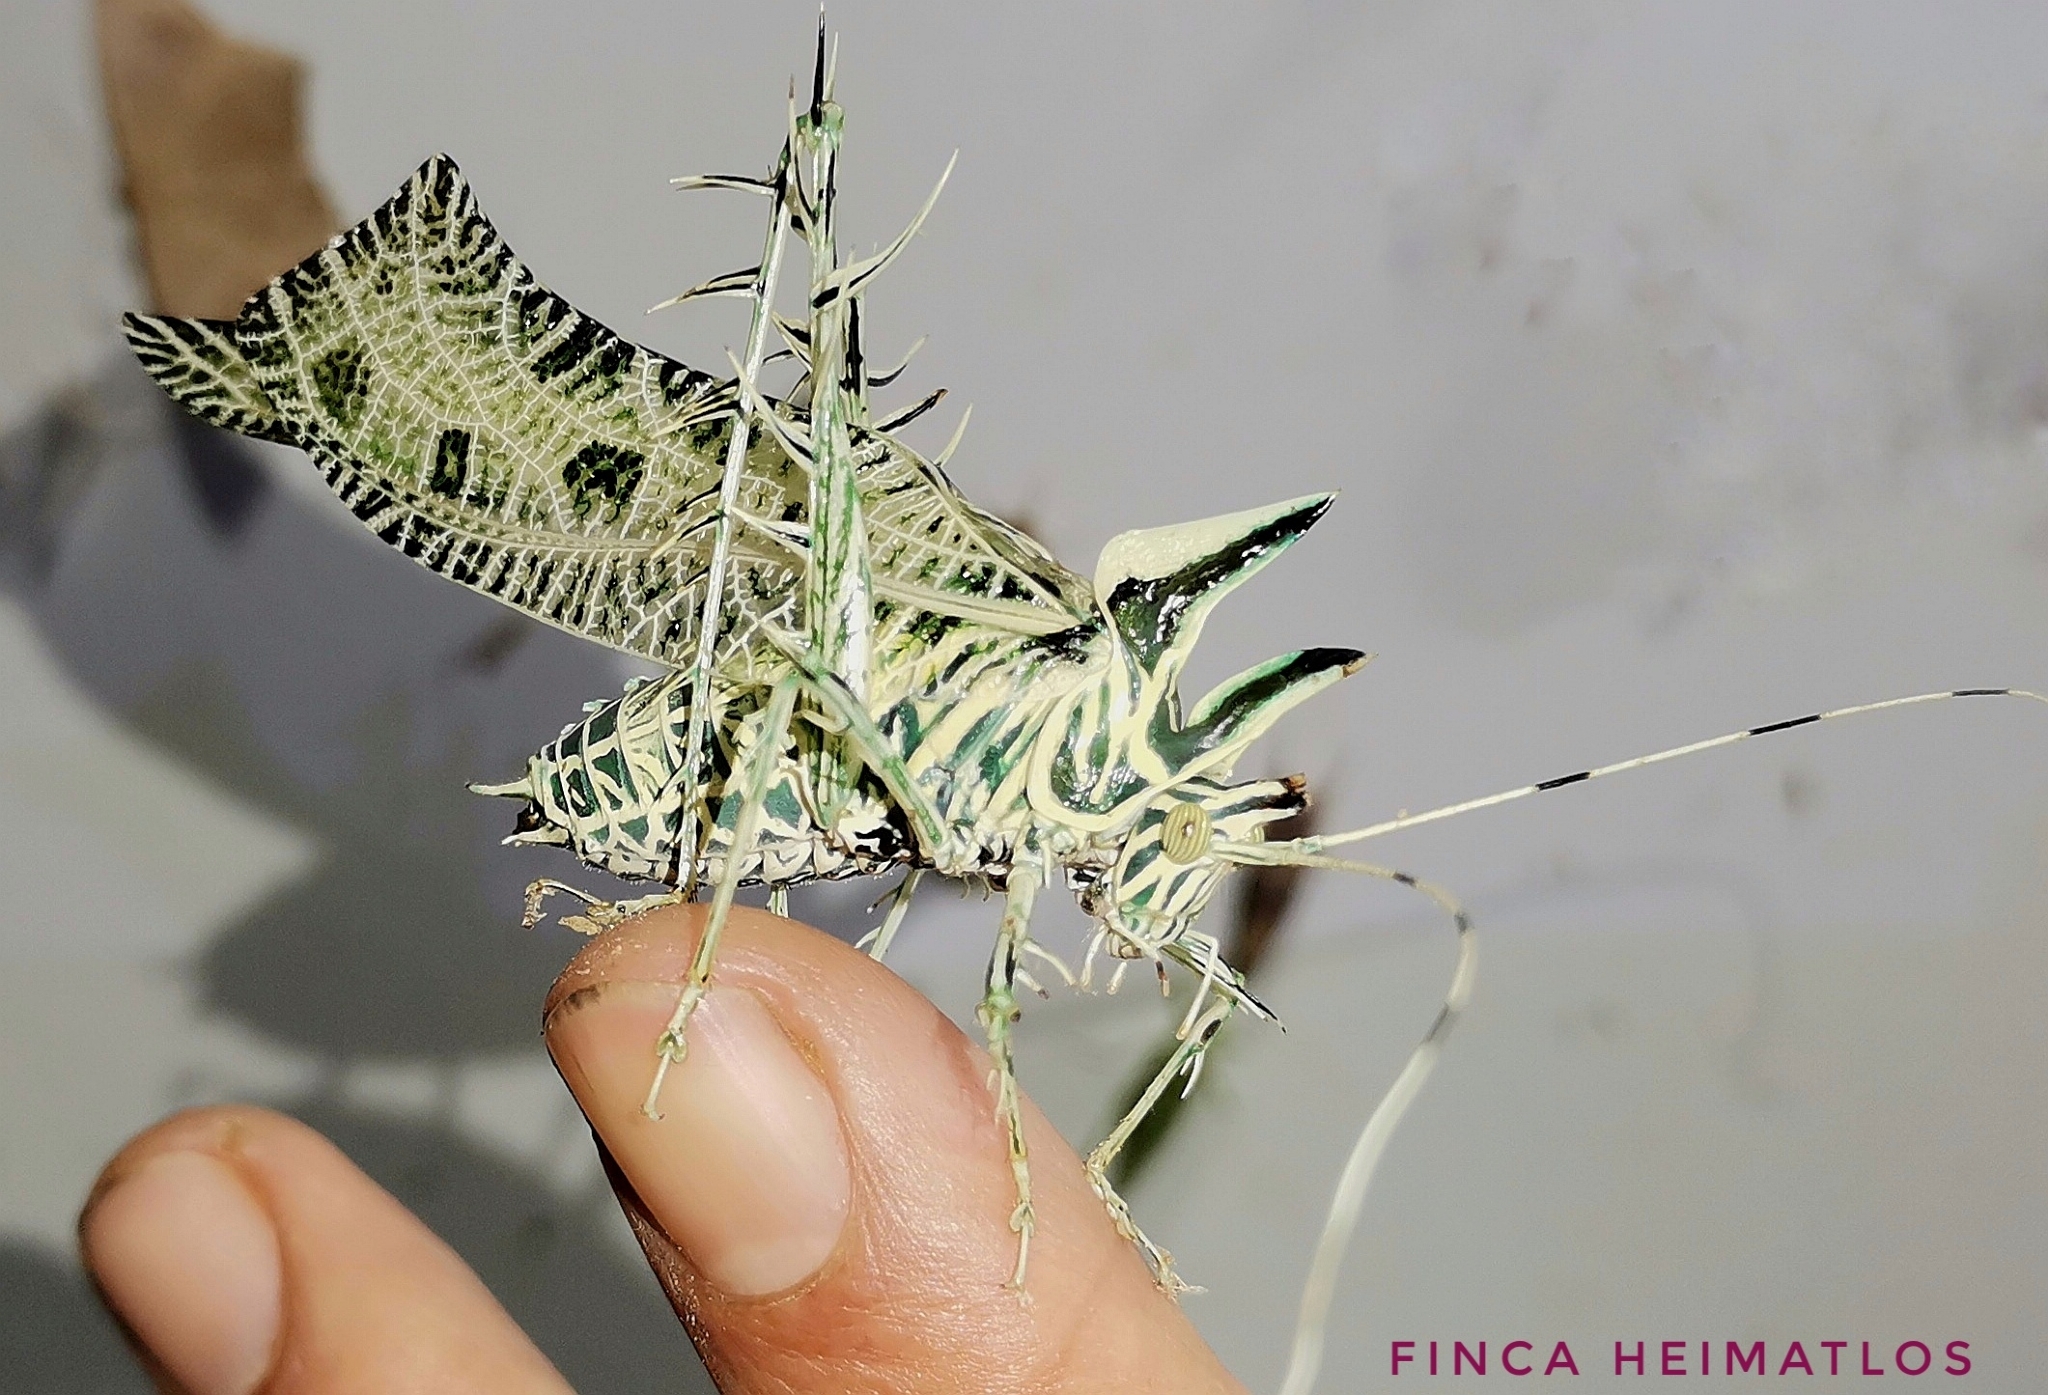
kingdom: Animalia
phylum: Arthropoda
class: Insecta
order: Orthoptera
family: Tettigoniidae
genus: Markia
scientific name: Markia arizae
